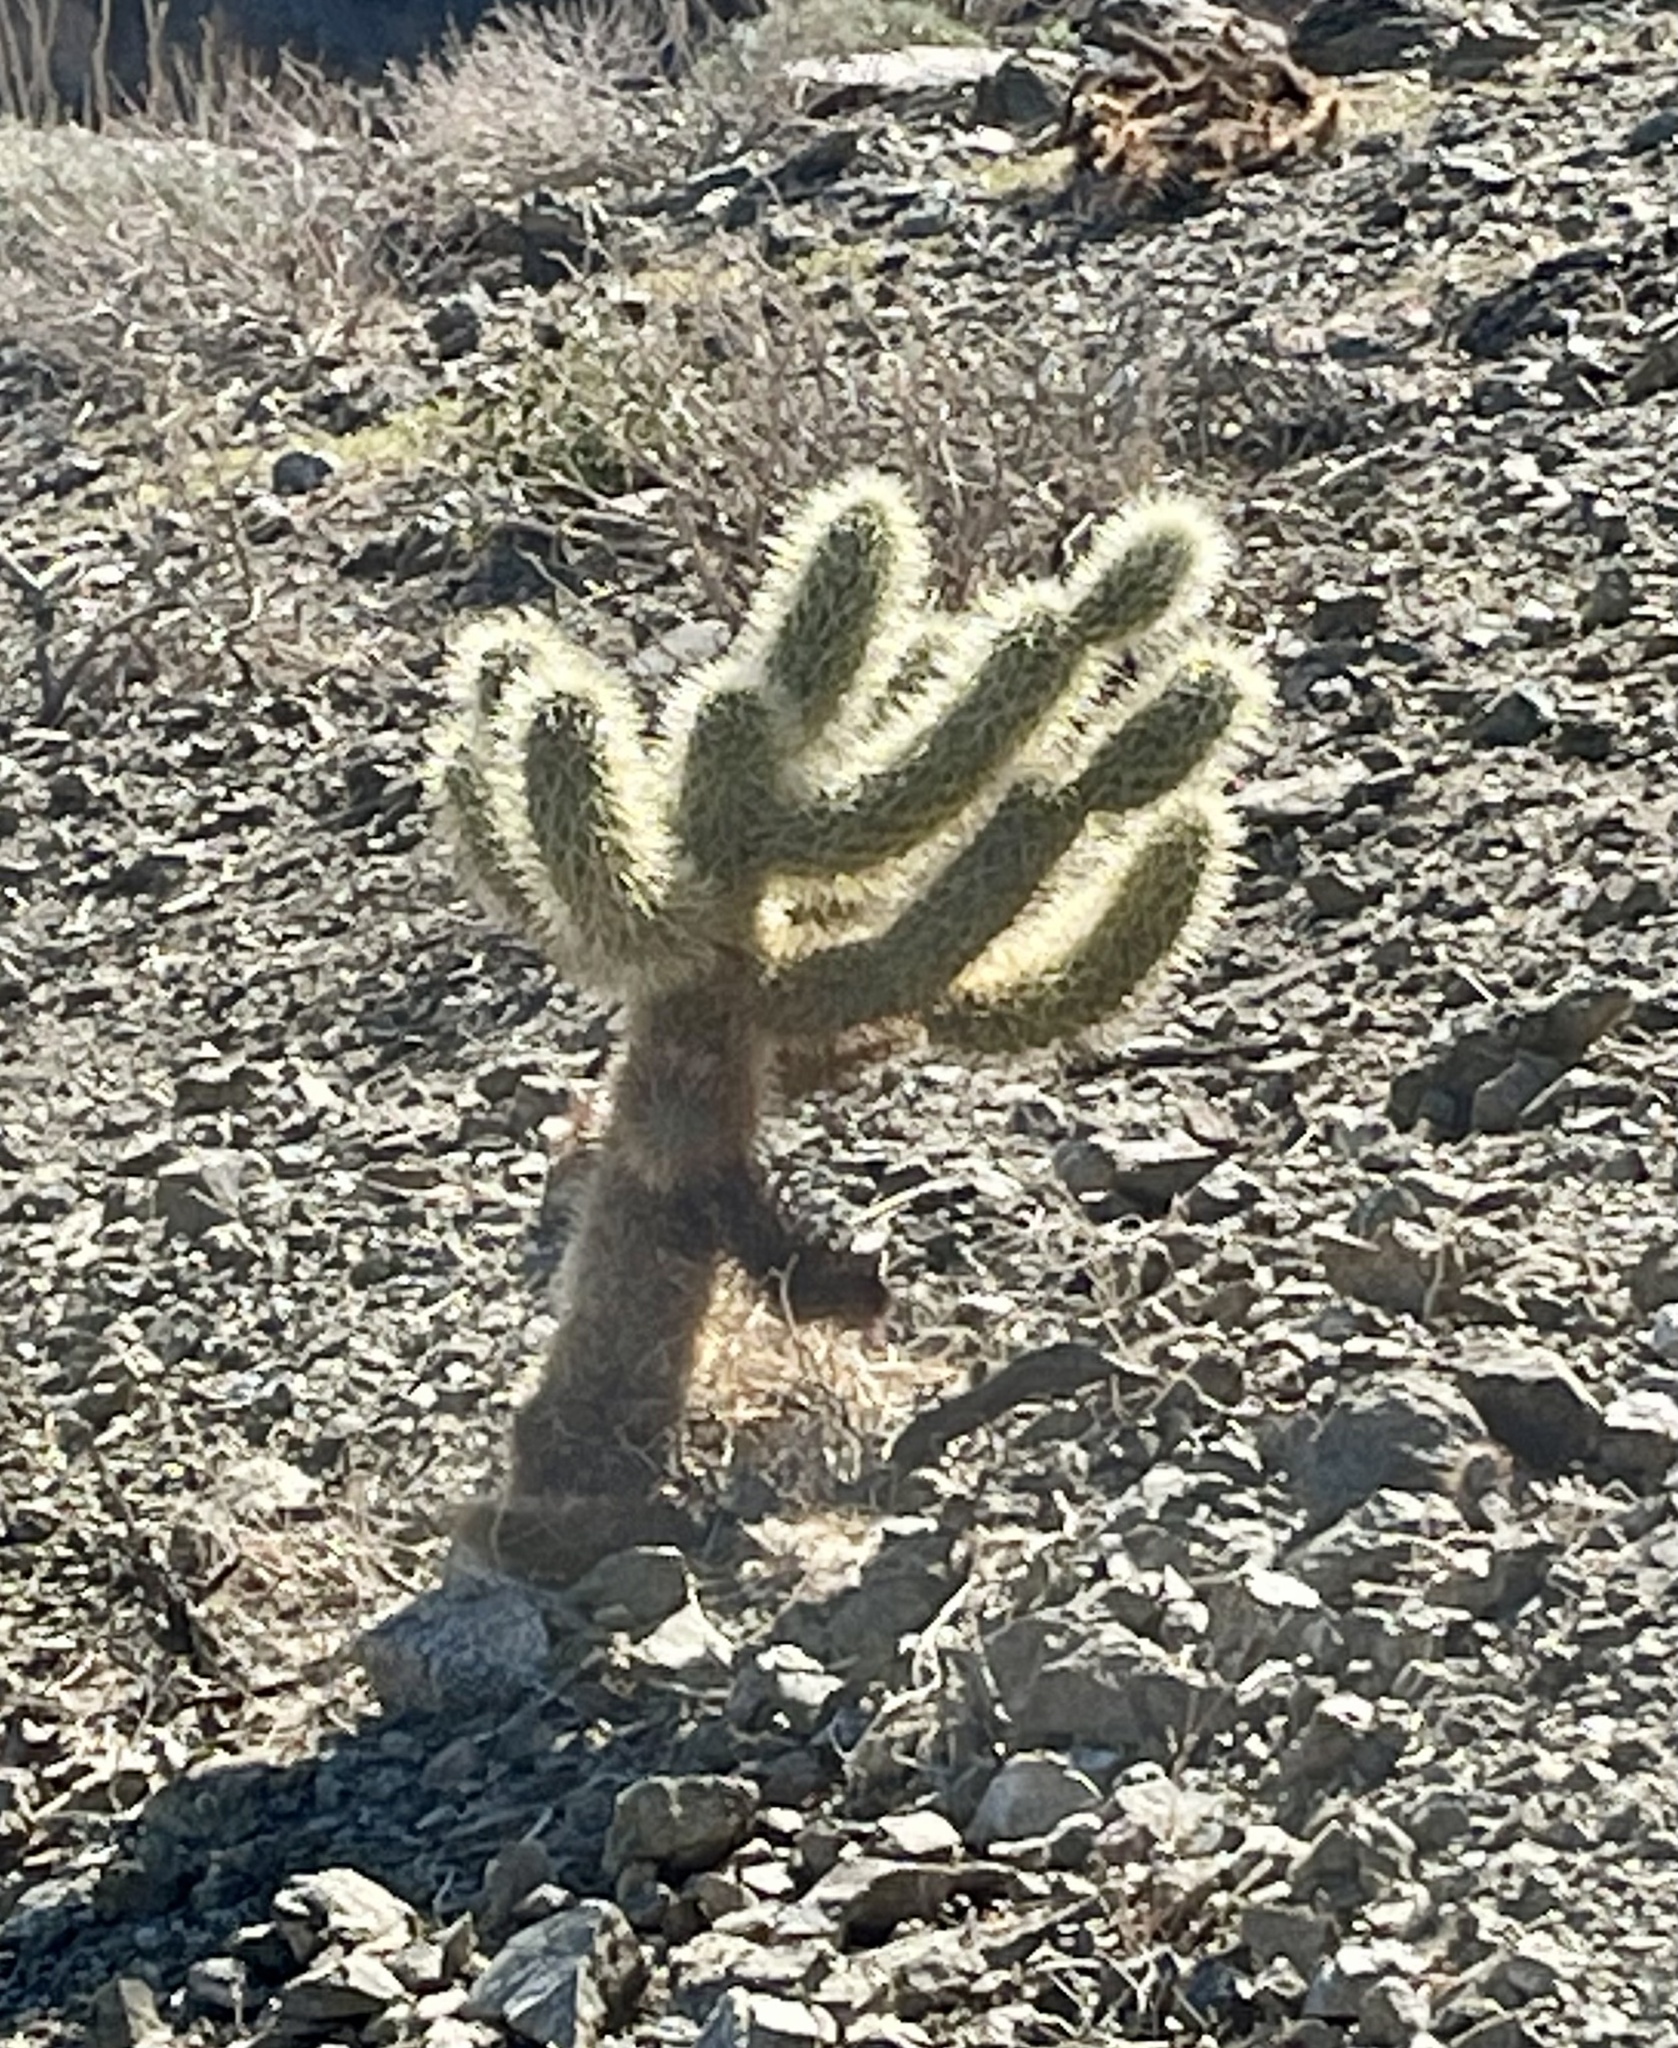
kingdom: Plantae
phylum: Tracheophyta
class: Magnoliopsida
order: Caryophyllales
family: Cactaceae
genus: Cylindropuntia
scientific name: Cylindropuntia fosbergii
